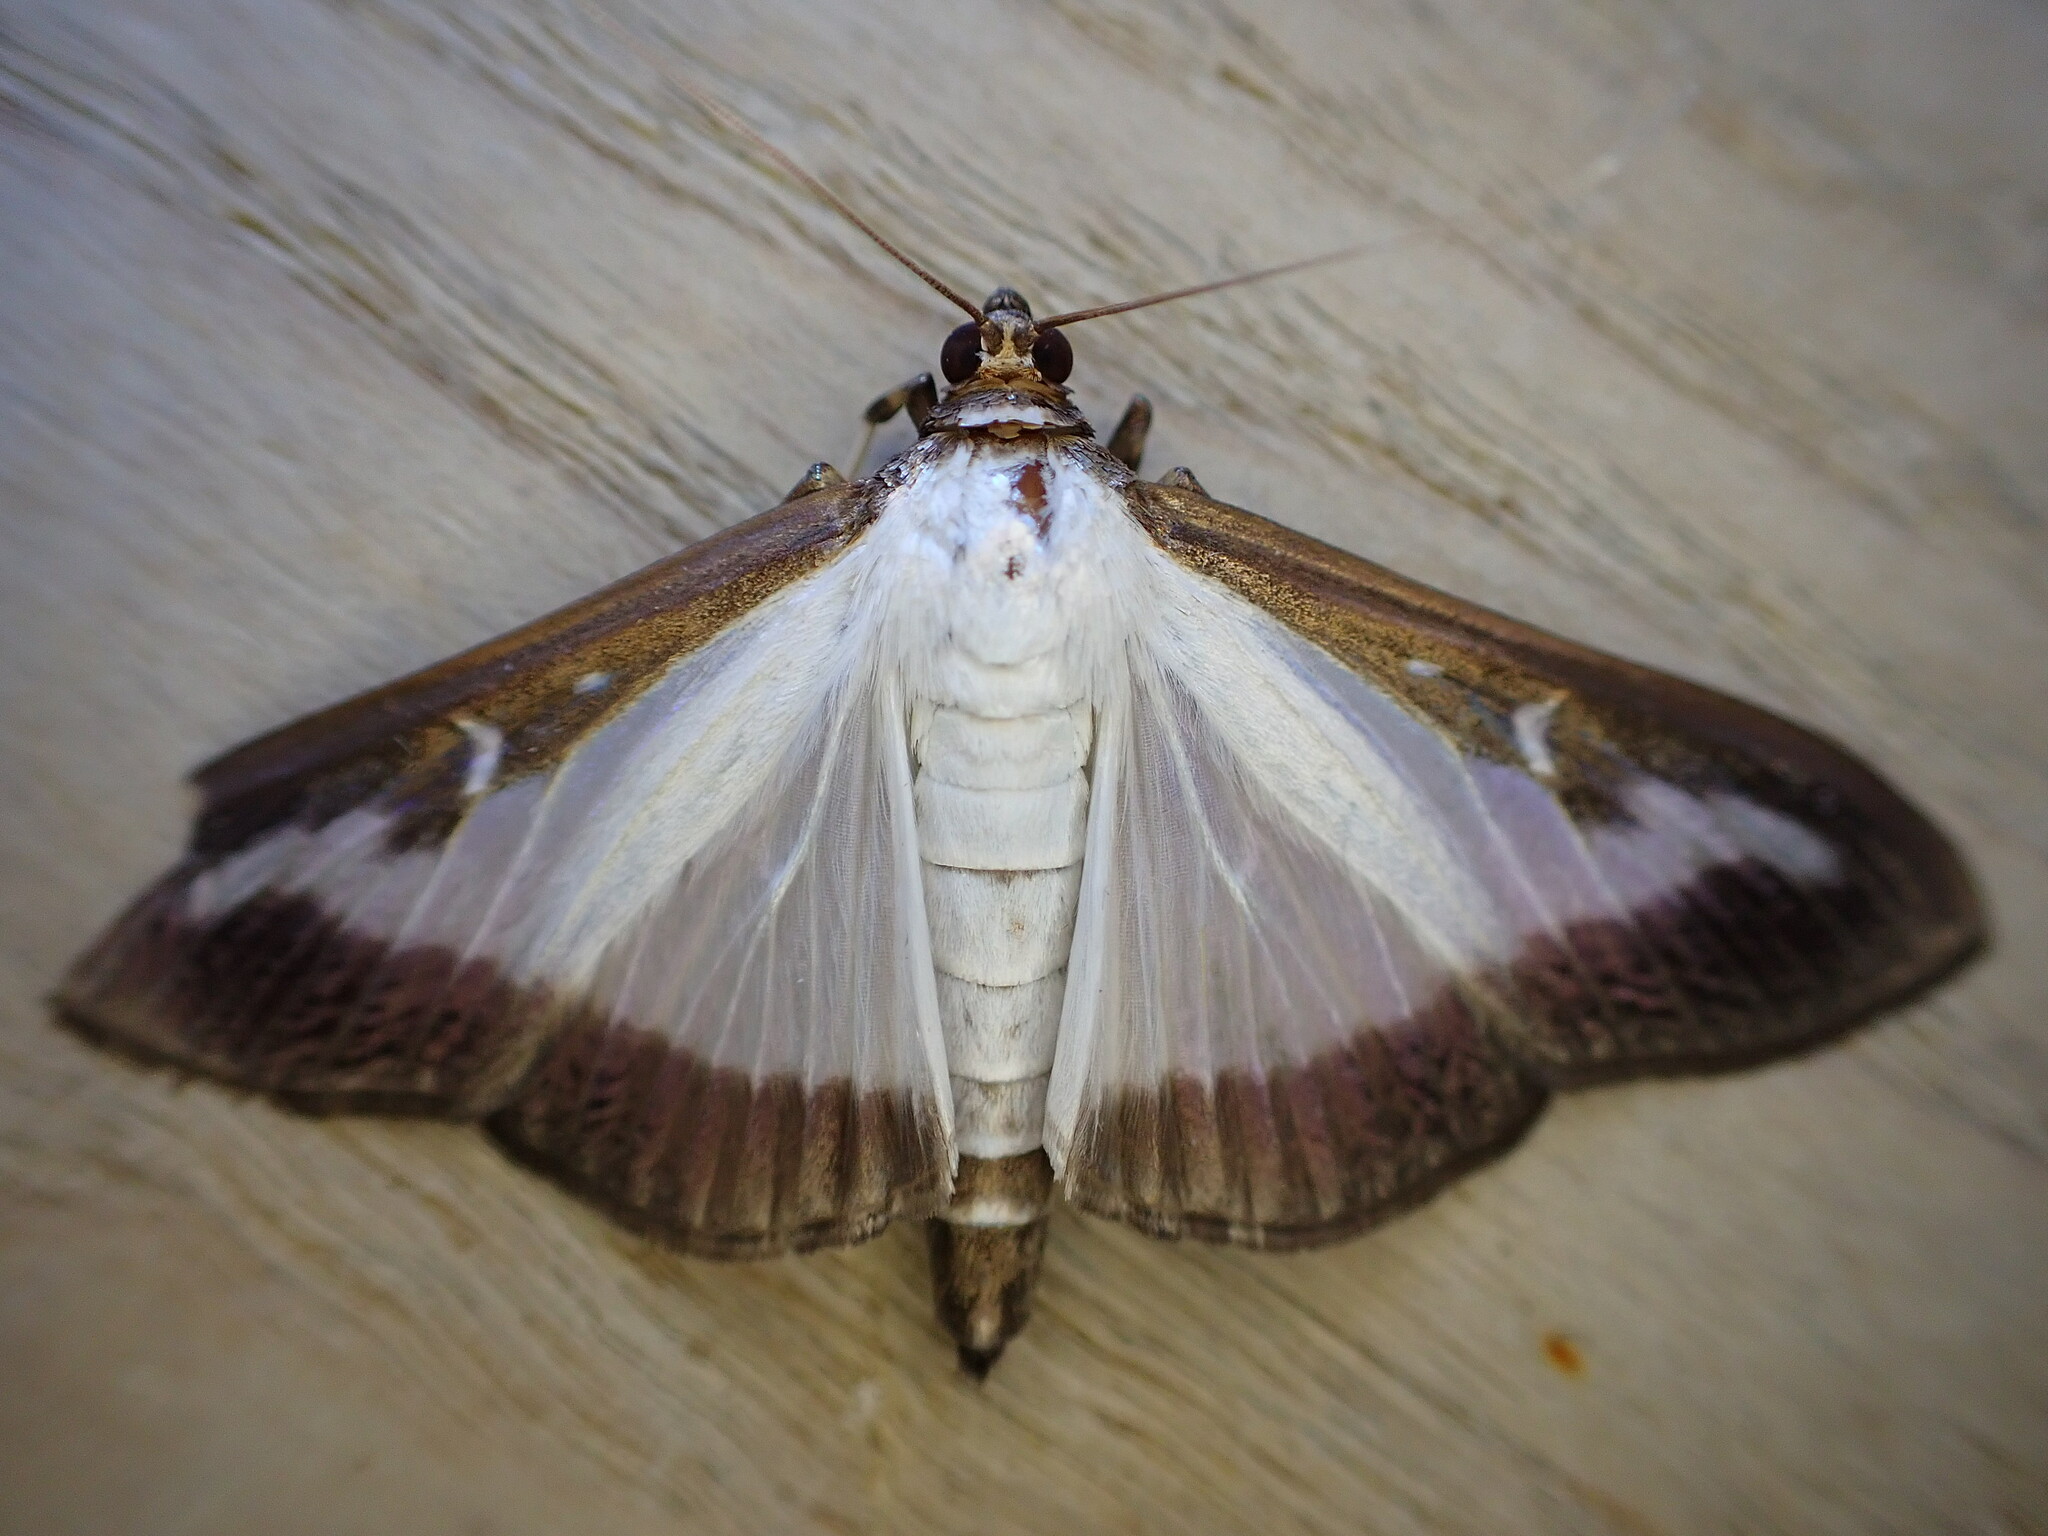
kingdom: Animalia
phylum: Arthropoda
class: Insecta
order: Lepidoptera
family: Crambidae
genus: Cydalima
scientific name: Cydalima perspectalis
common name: Box tree moth
